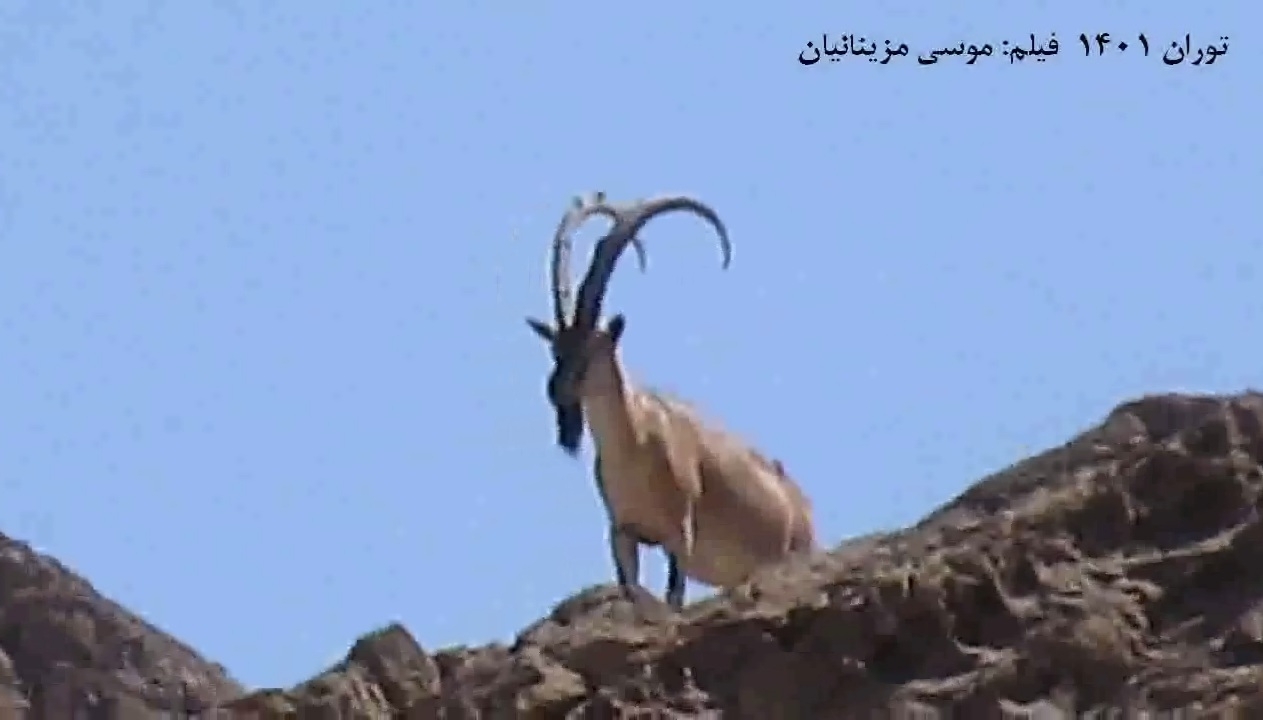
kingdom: Animalia
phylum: Chordata
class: Mammalia
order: Artiodactyla
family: Bovidae
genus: Capra
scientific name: Capra hircus
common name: Domestic goat
